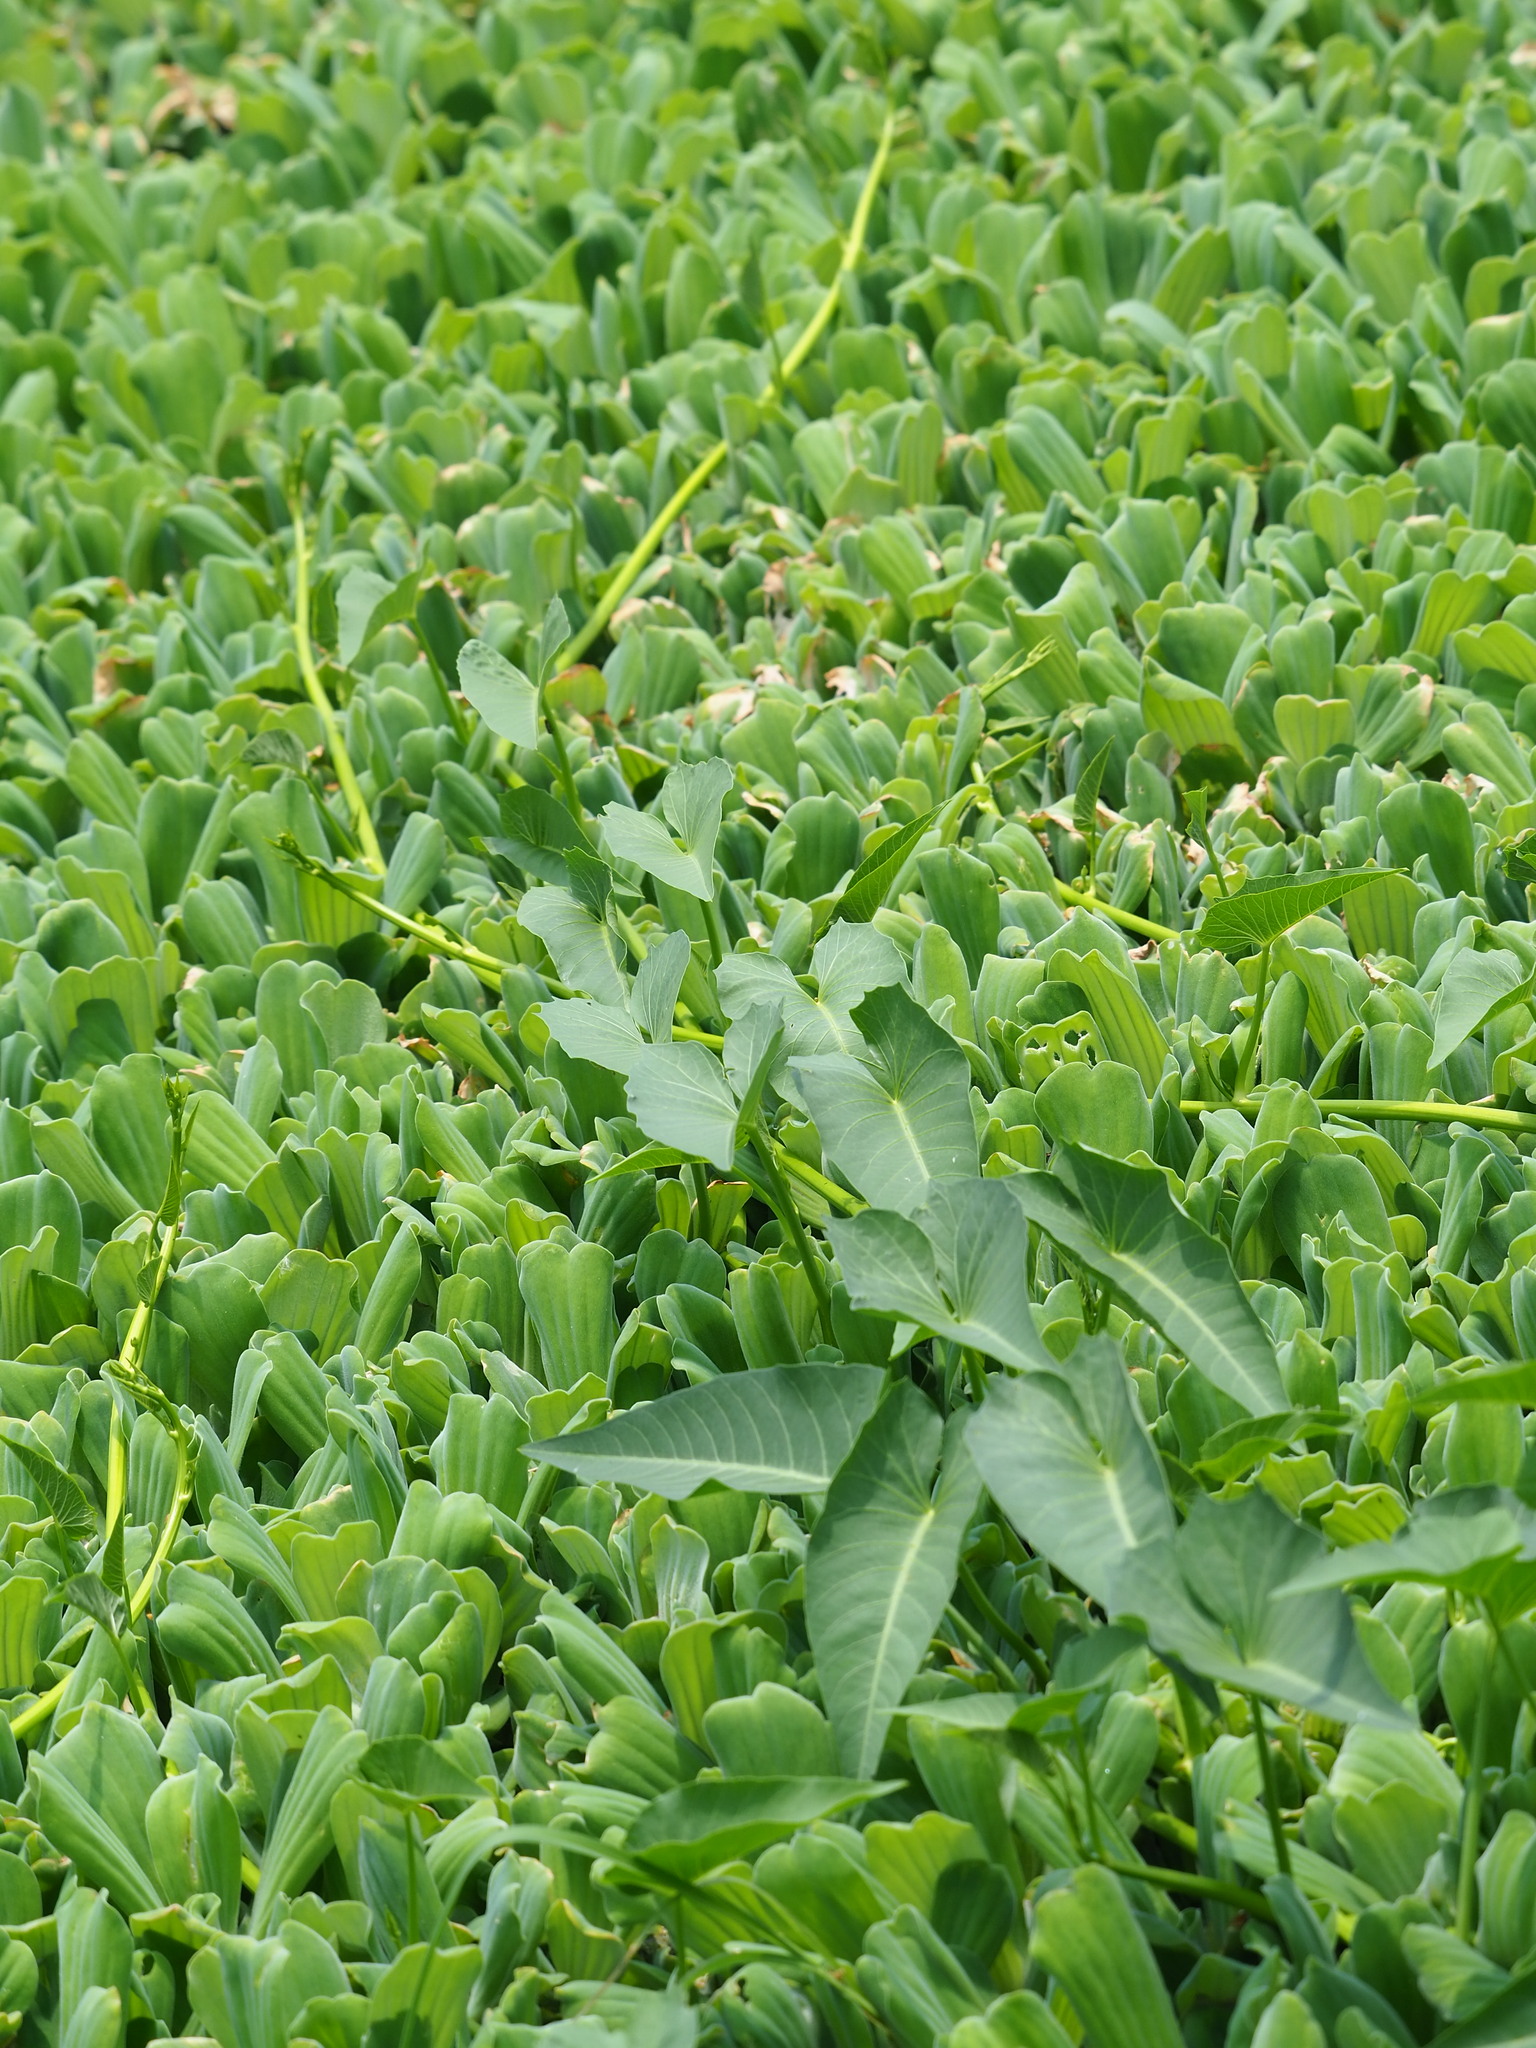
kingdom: Plantae
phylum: Tracheophyta
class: Magnoliopsida
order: Solanales
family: Convolvulaceae
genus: Ipomoea
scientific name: Ipomoea aquatica
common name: Swamp morning-glory
